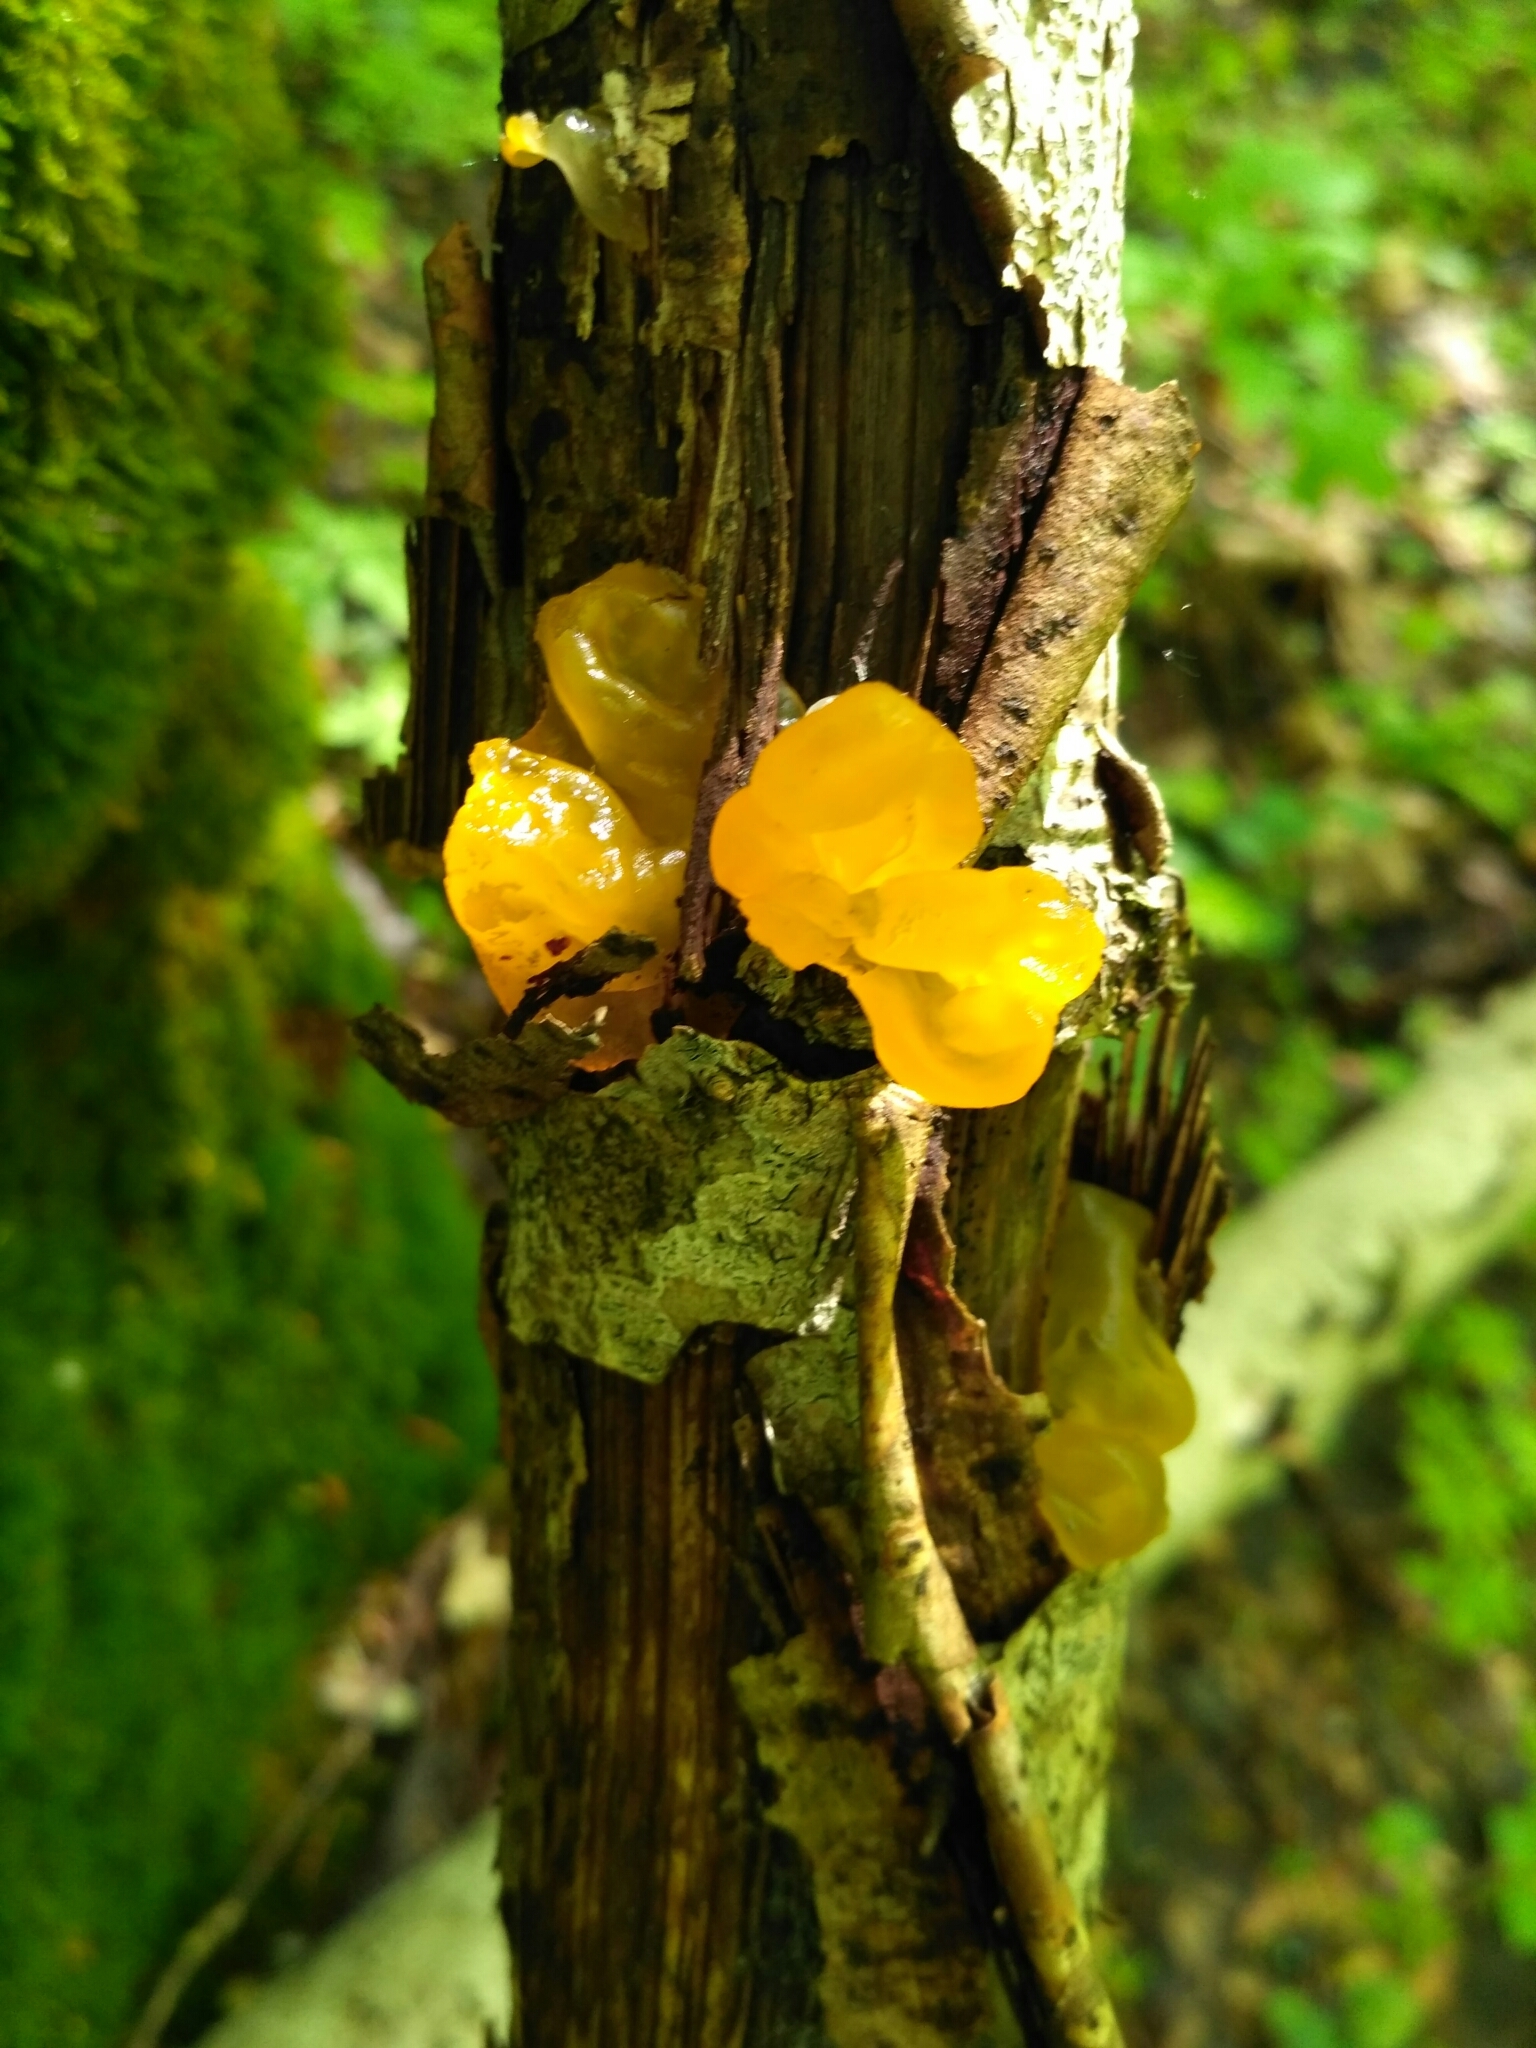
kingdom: Fungi
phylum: Basidiomycota
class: Tremellomycetes
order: Tremellales
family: Tremellaceae
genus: Tremella
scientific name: Tremella mesenterica
